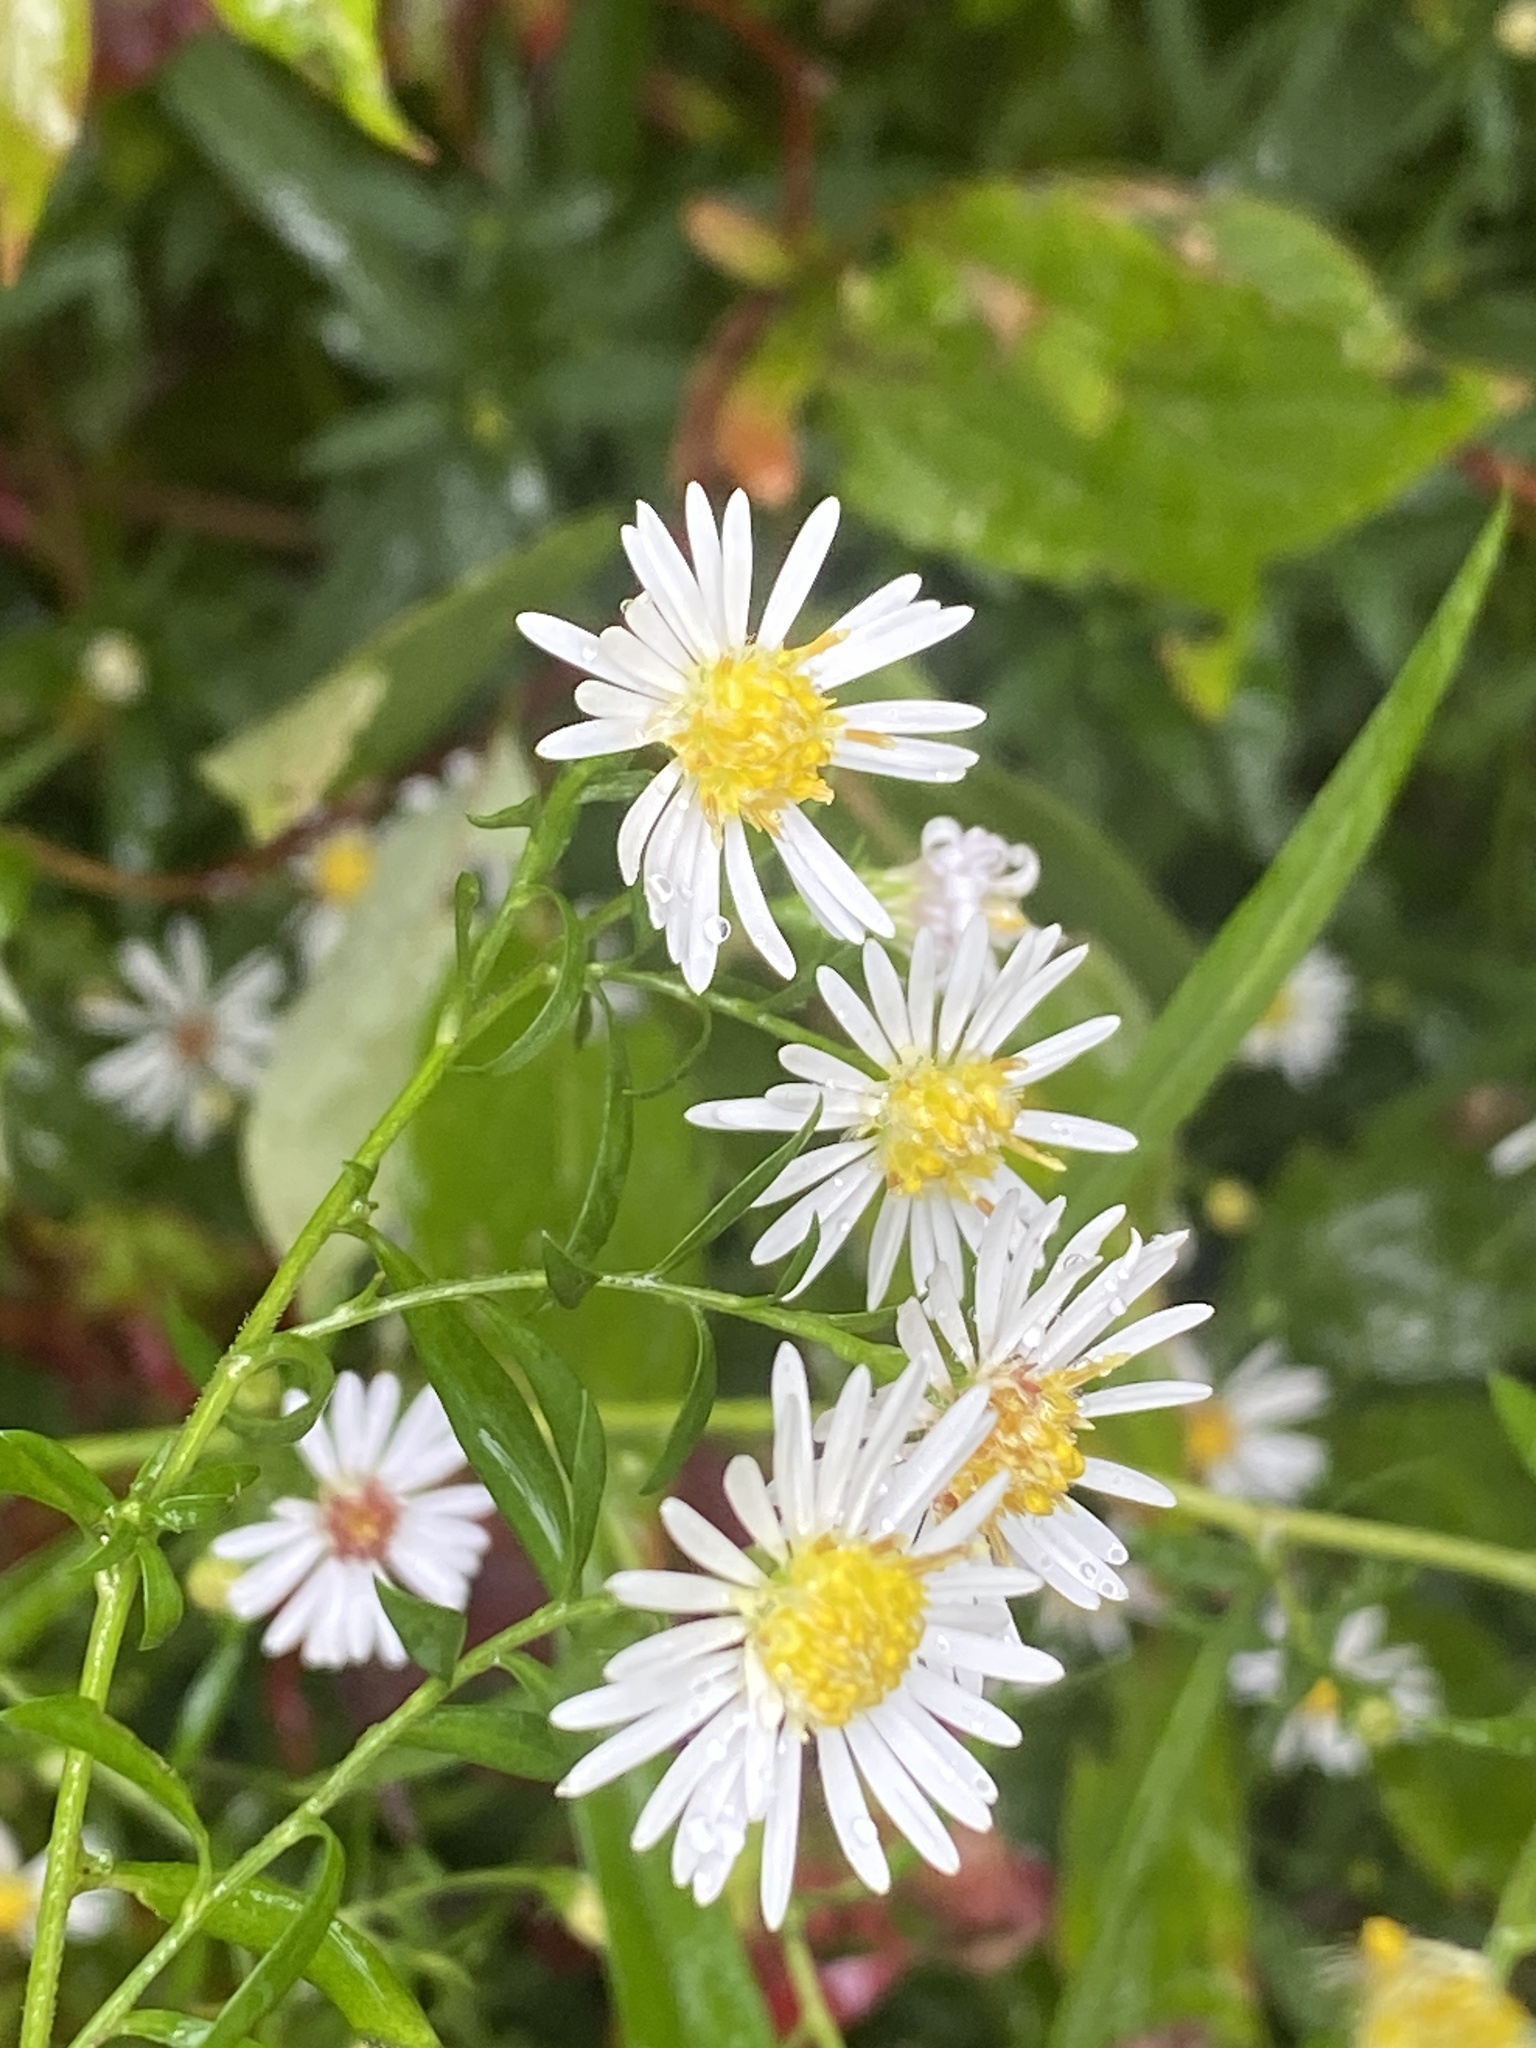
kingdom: Plantae
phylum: Tracheophyta
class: Magnoliopsida
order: Asterales
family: Asteraceae
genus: Symphyotrichum
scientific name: Symphyotrichum lanceolatum
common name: Panicled aster
